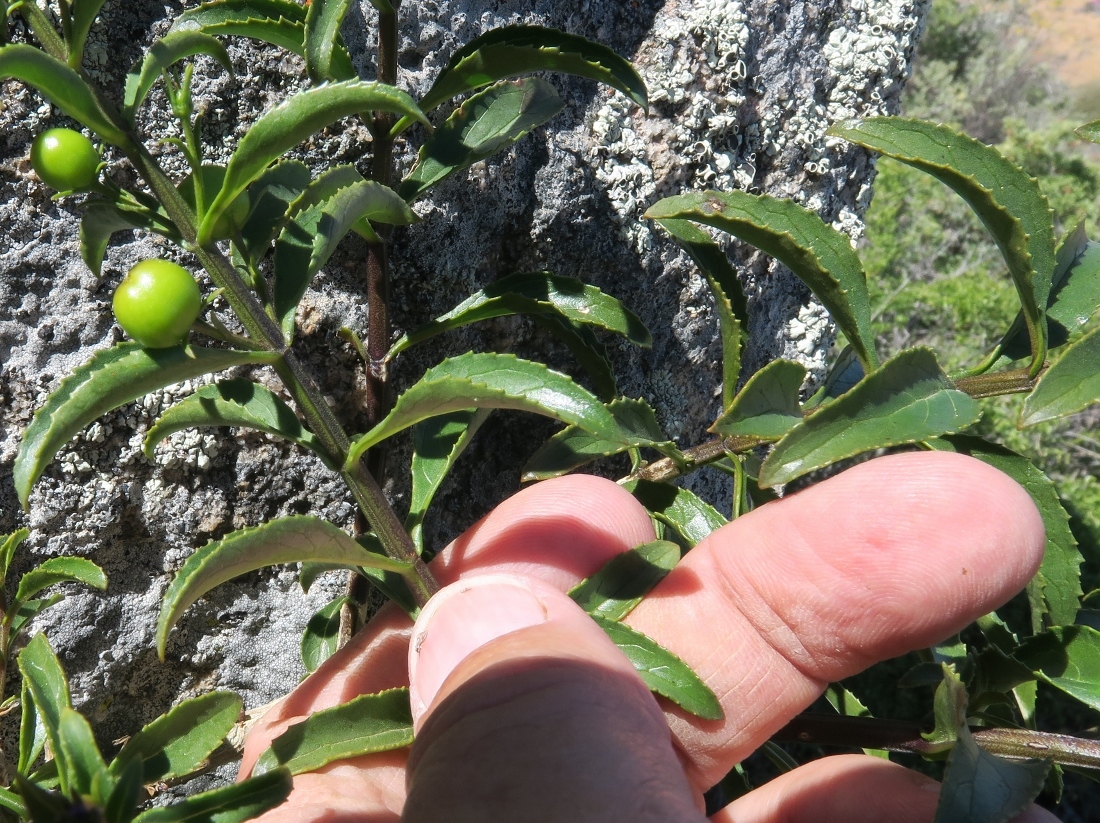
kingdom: Plantae
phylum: Tracheophyta
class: Magnoliopsida
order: Lamiales
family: Scrophulariaceae
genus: Teedia
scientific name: Teedia lucida
